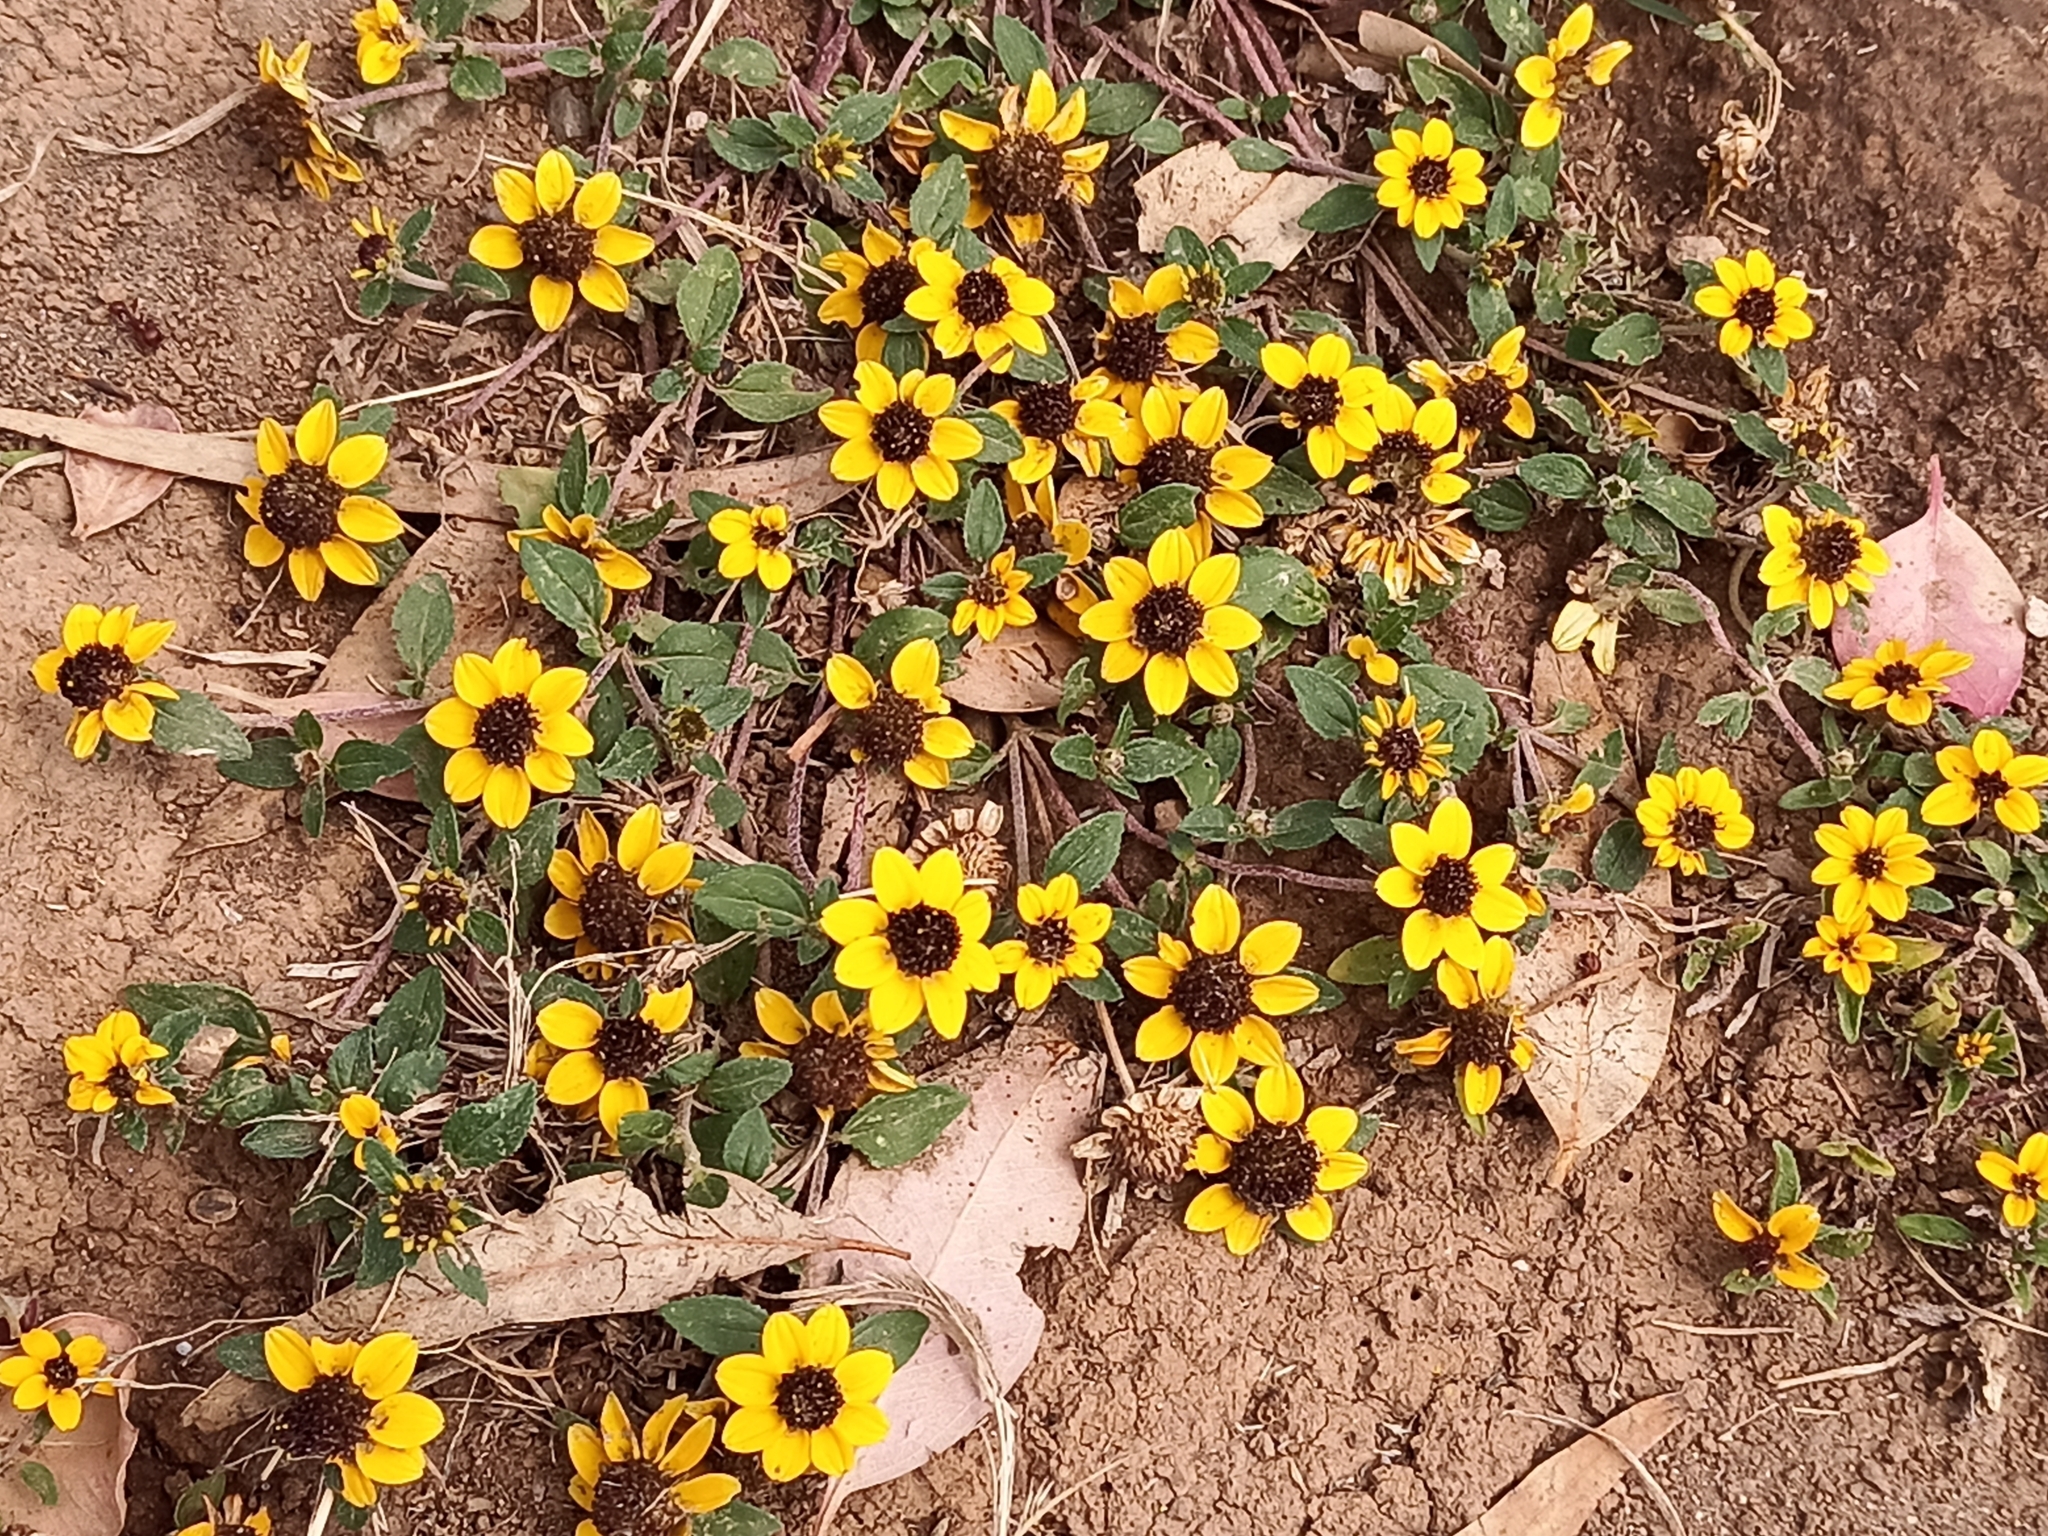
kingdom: Plantae
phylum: Tracheophyta
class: Magnoliopsida
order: Asterales
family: Asteraceae
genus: Sanvitalia
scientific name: Sanvitalia procumbens
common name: Mexican creeping zinnia
